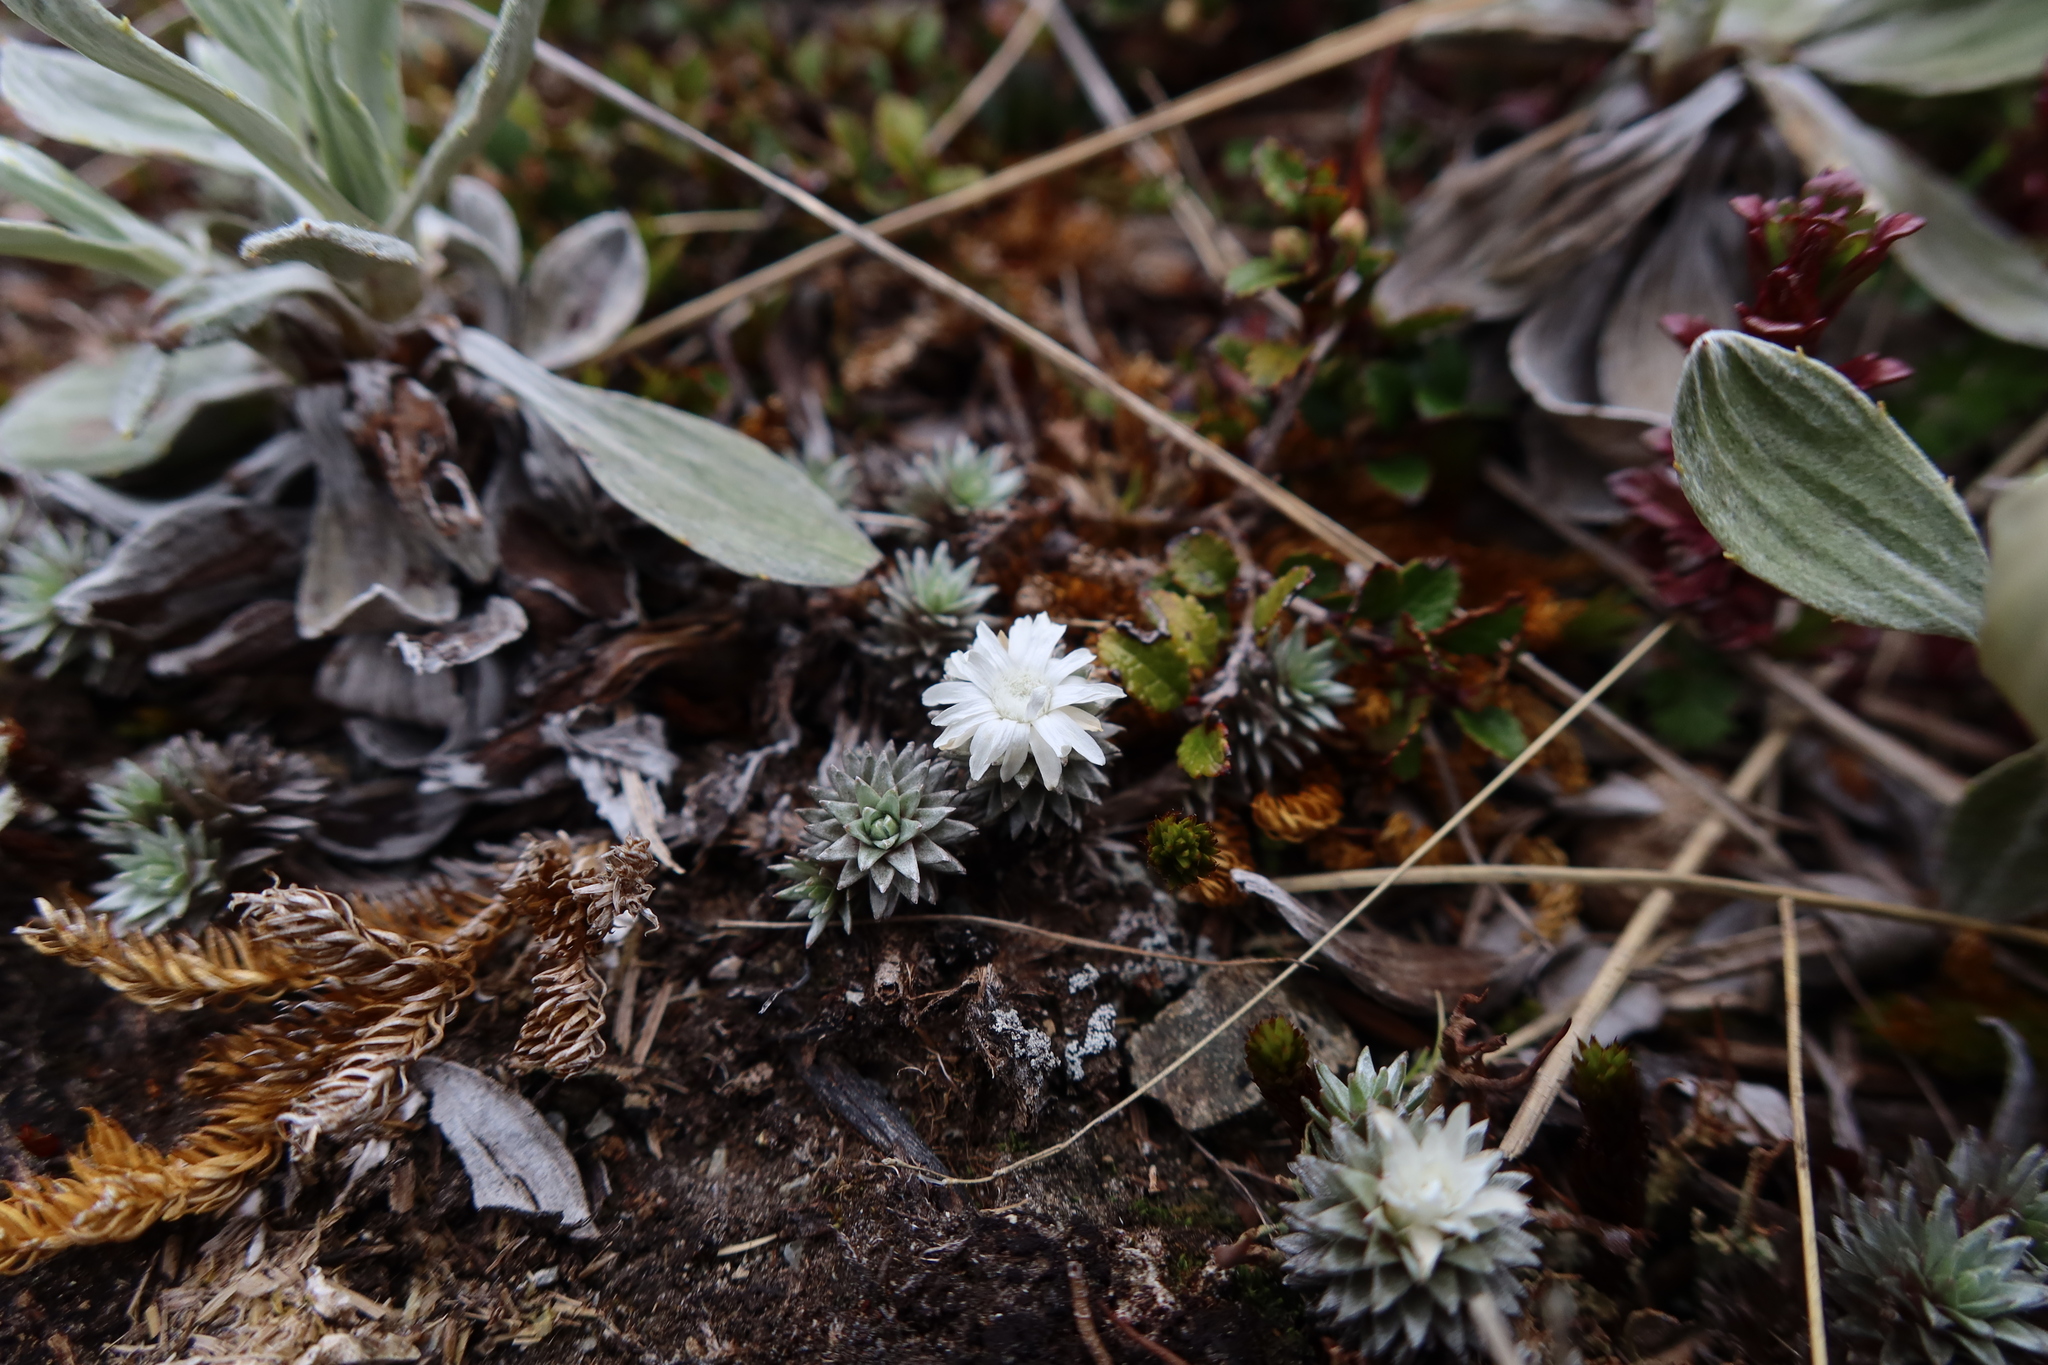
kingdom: Plantae
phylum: Tracheophyta
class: Magnoliopsida
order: Asterales
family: Asteraceae
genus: Raoulia
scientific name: Raoulia grandiflora
